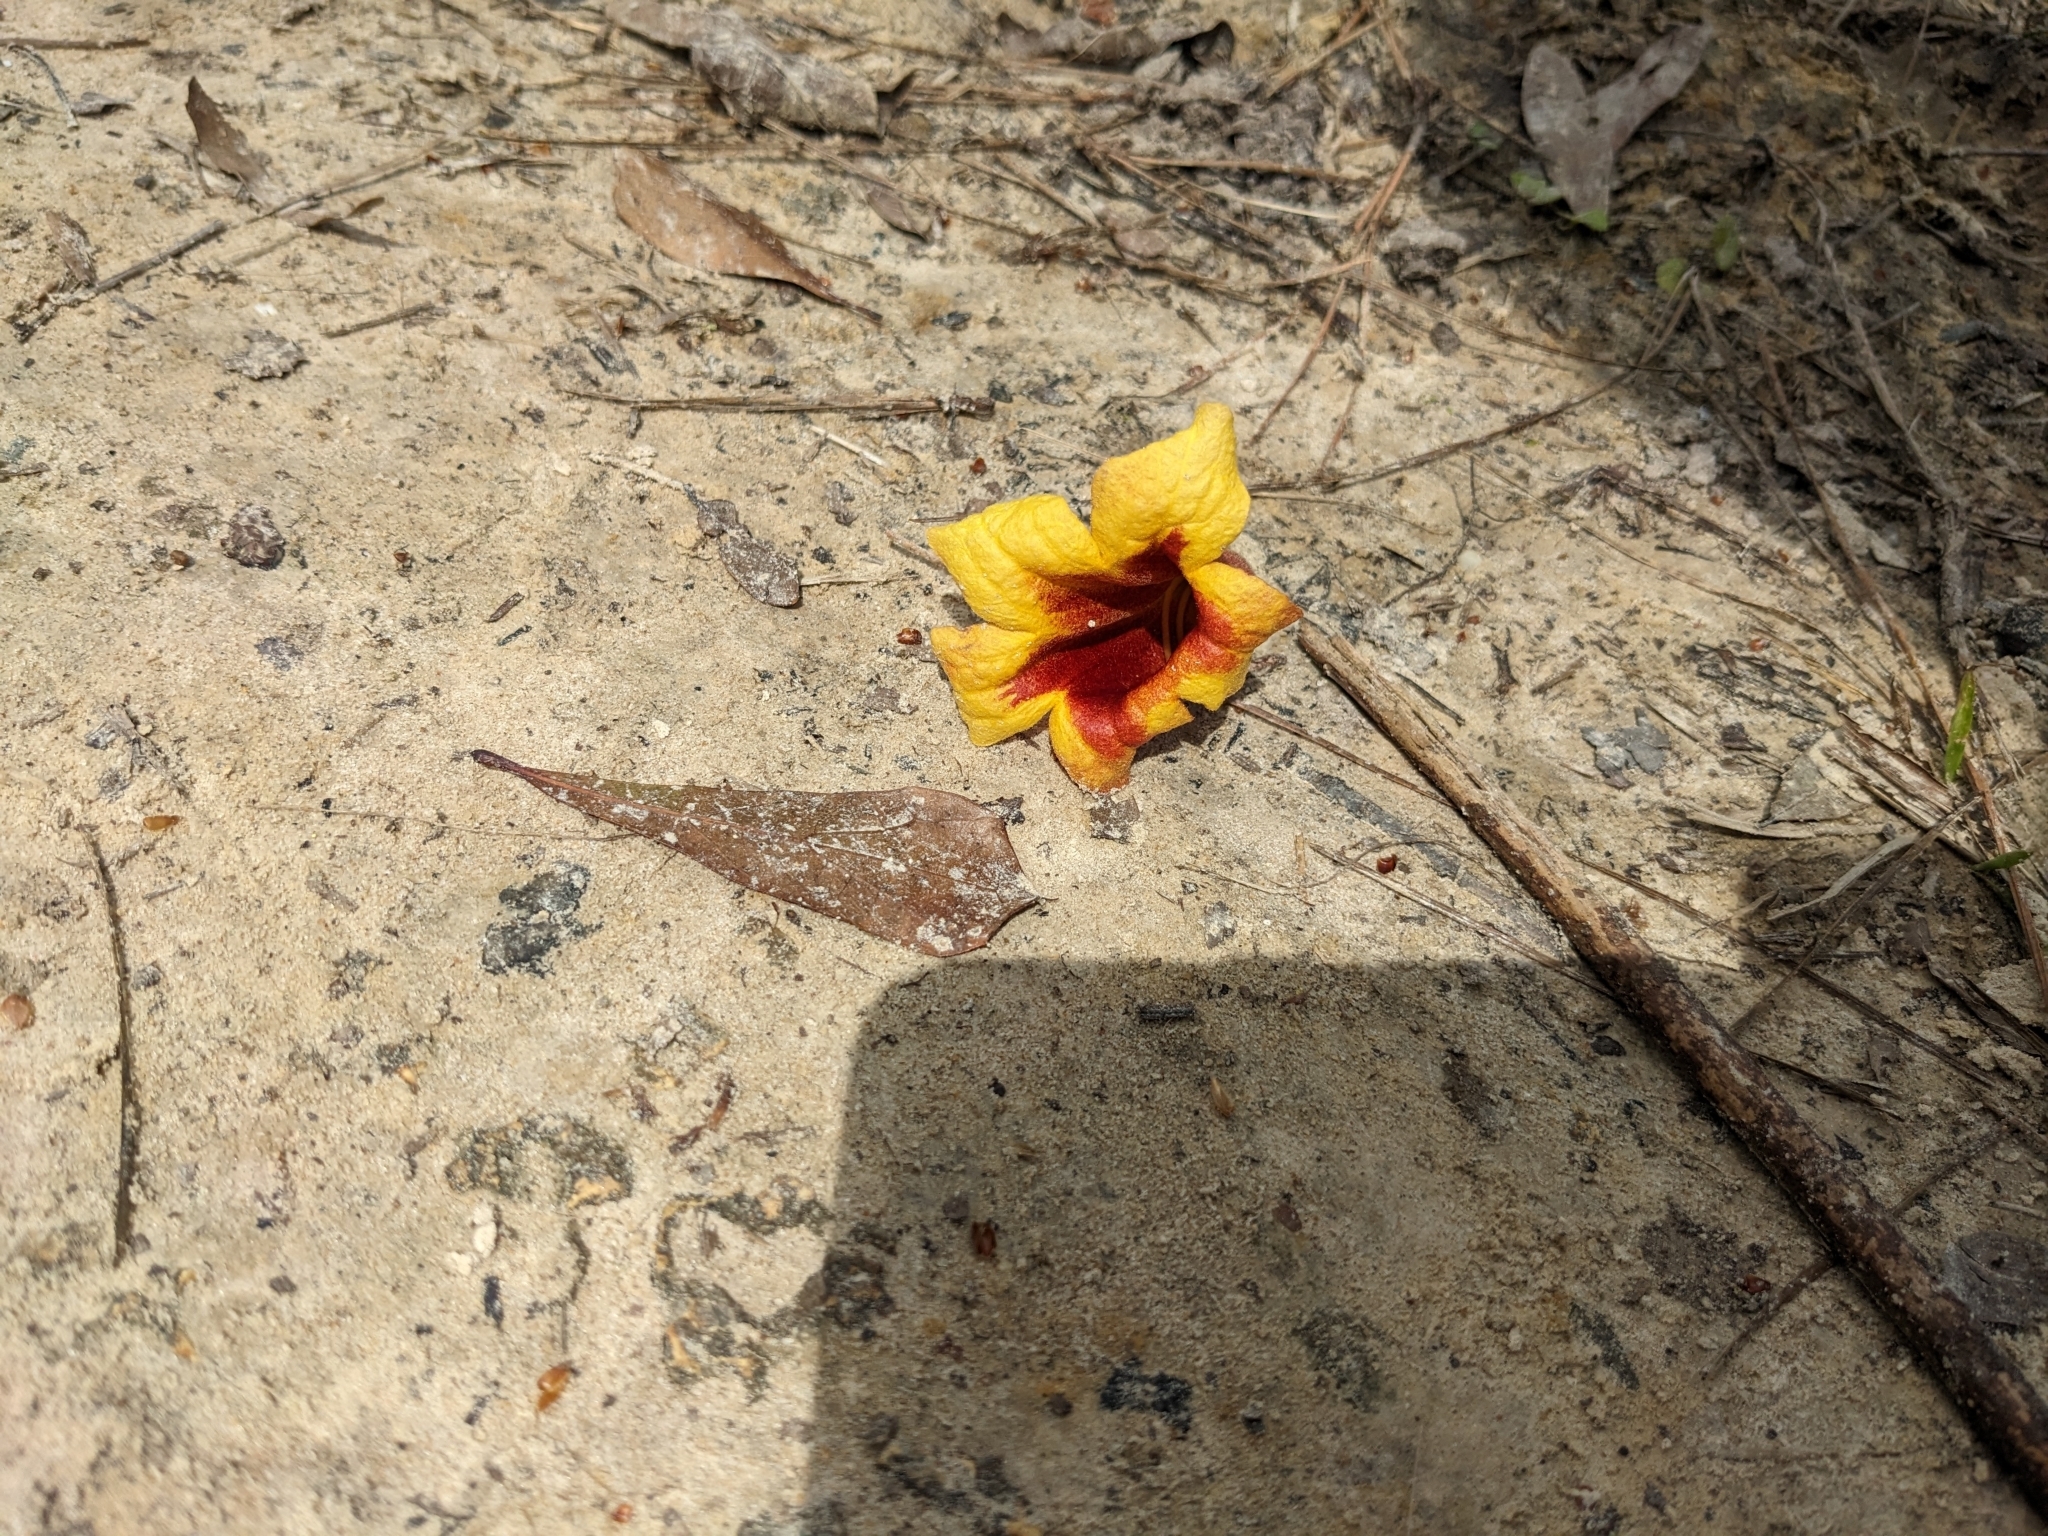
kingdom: Plantae
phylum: Tracheophyta
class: Magnoliopsida
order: Lamiales
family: Bignoniaceae
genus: Bignonia
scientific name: Bignonia capreolata
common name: Crossvine
